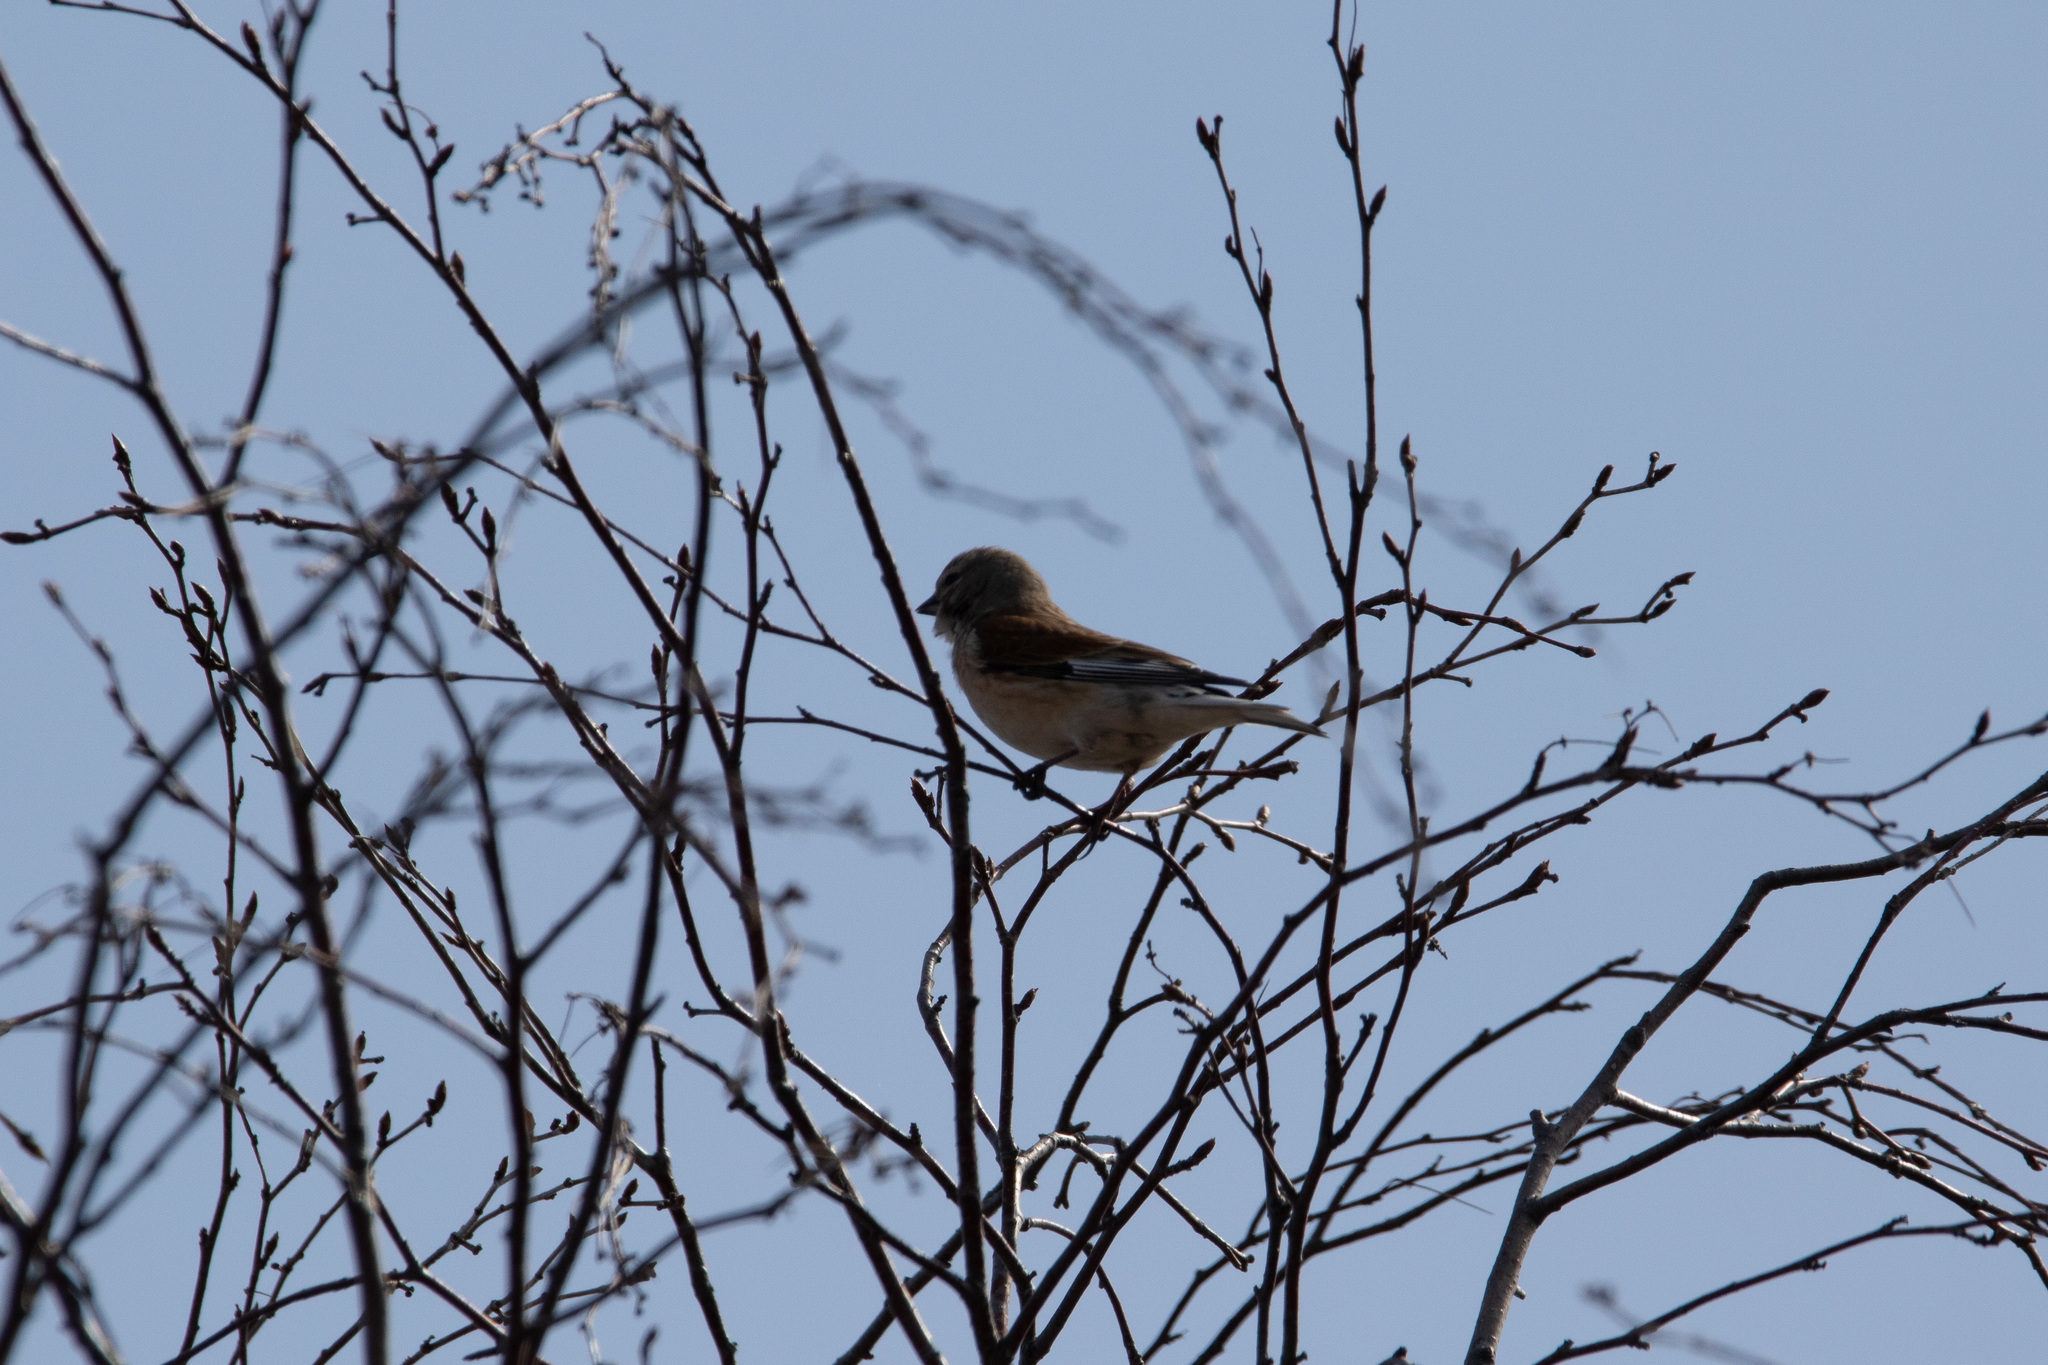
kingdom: Animalia
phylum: Chordata
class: Aves
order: Passeriformes
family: Fringillidae
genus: Linaria
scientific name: Linaria cannabina
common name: Common linnet
